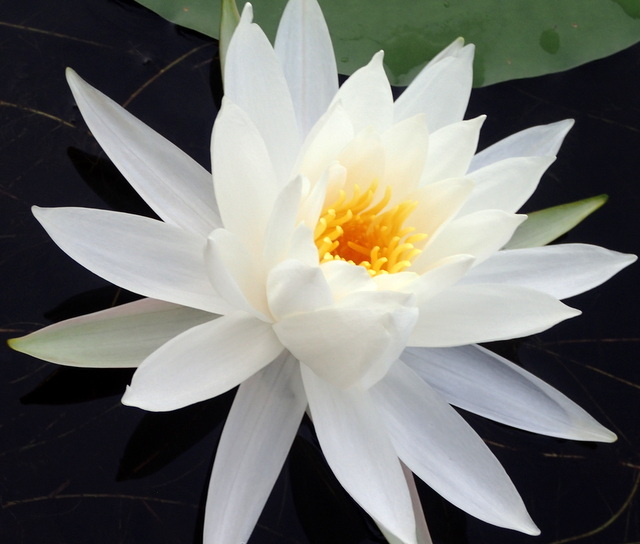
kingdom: Plantae
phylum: Tracheophyta
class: Magnoliopsida
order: Nymphaeales
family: Nymphaeaceae
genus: Nymphaea
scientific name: Nymphaea odorata
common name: Fragrant water-lily
